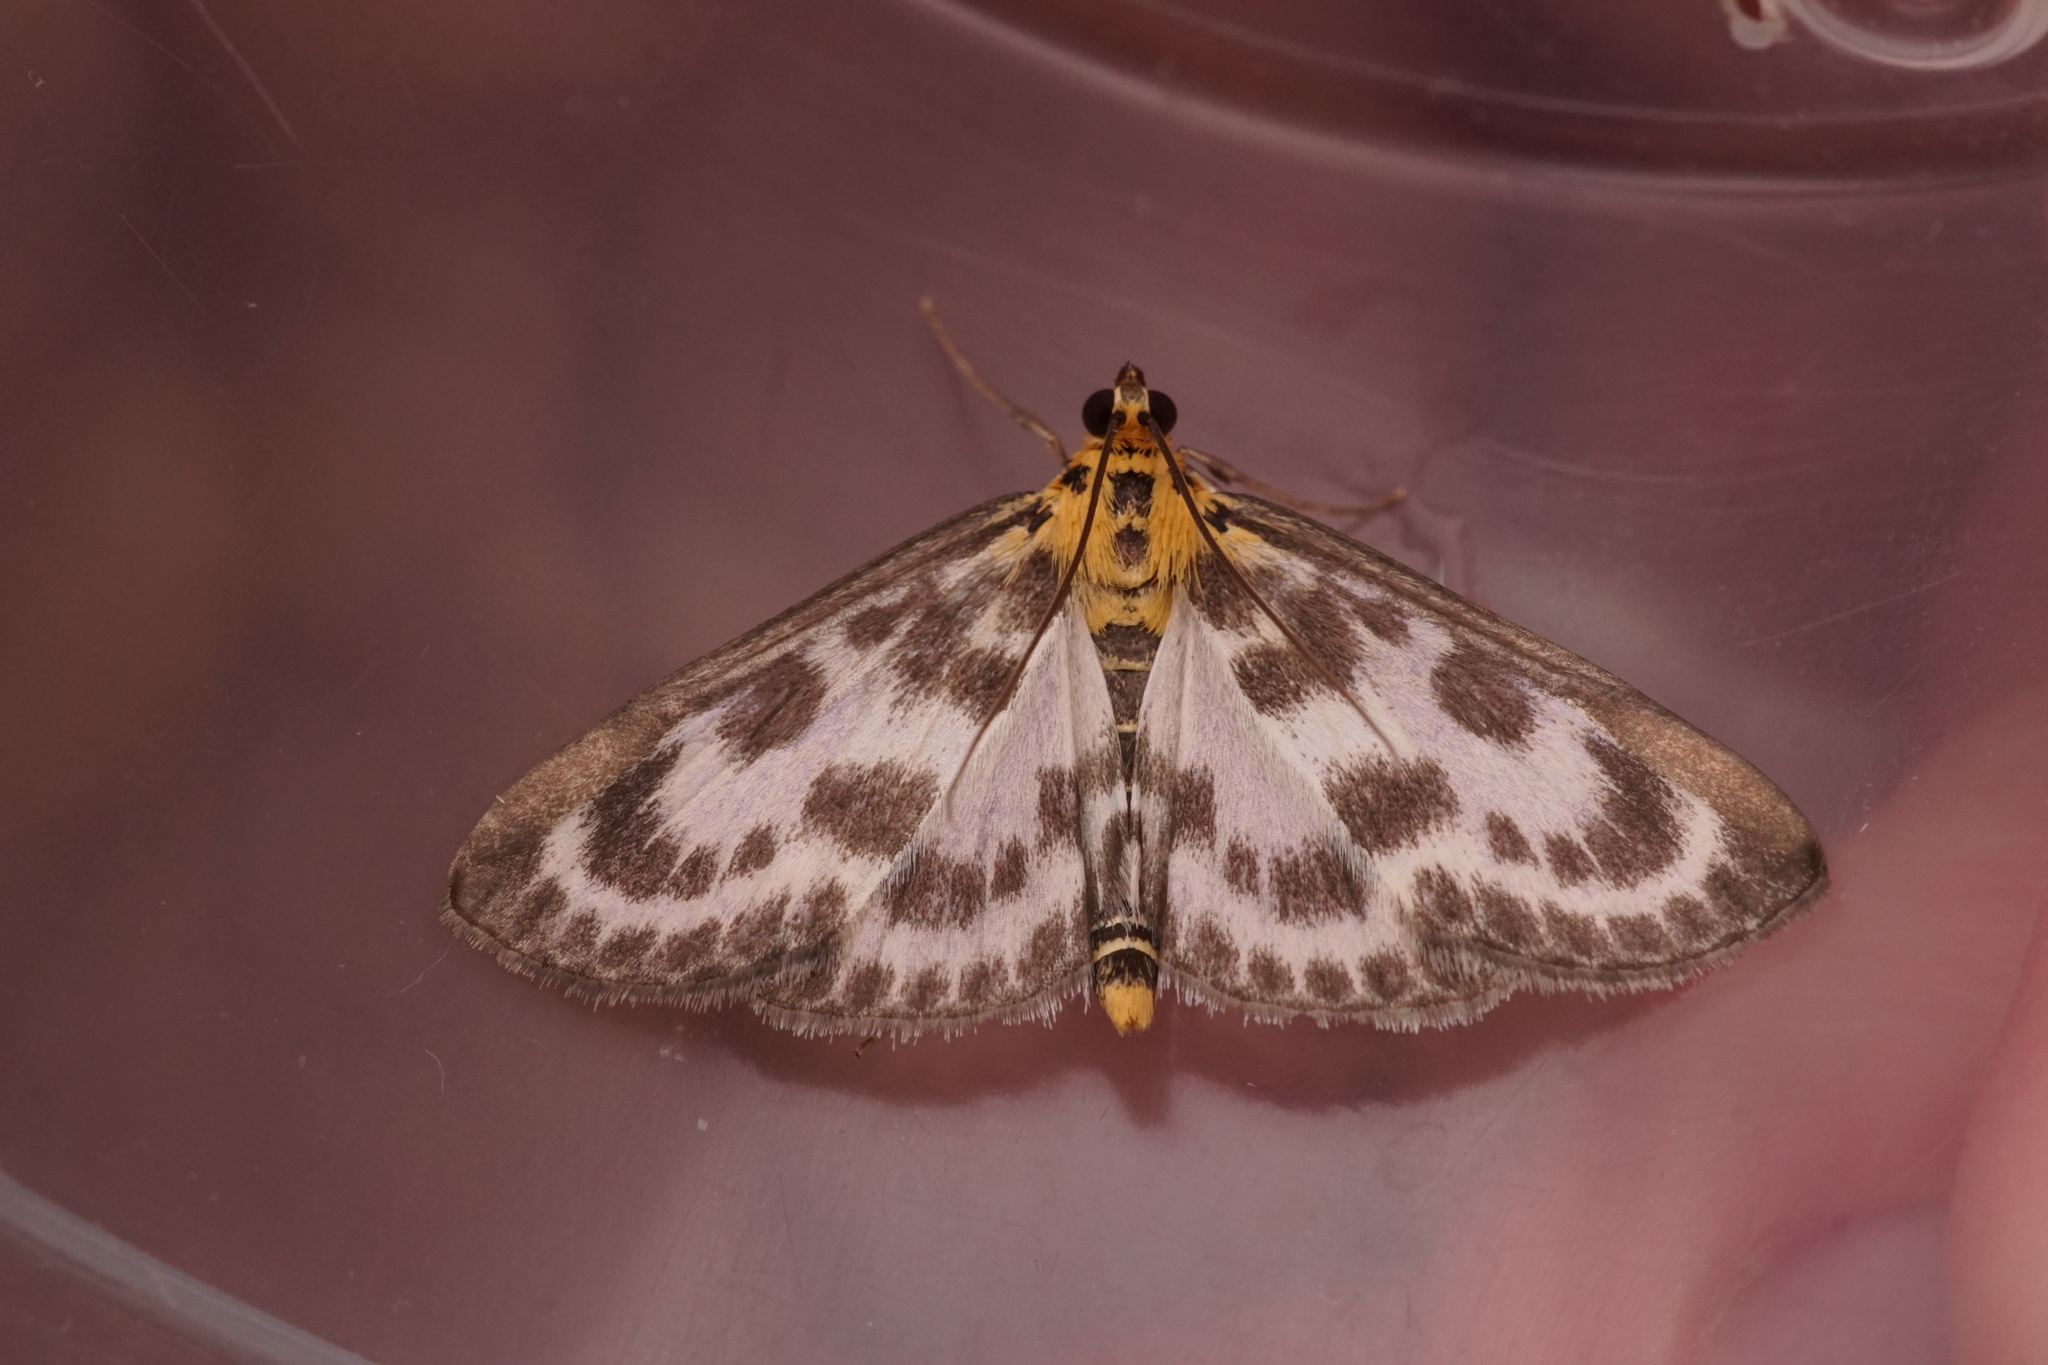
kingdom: Animalia
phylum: Arthropoda
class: Insecta
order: Lepidoptera
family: Crambidae
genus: Anania
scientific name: Anania hortulata
